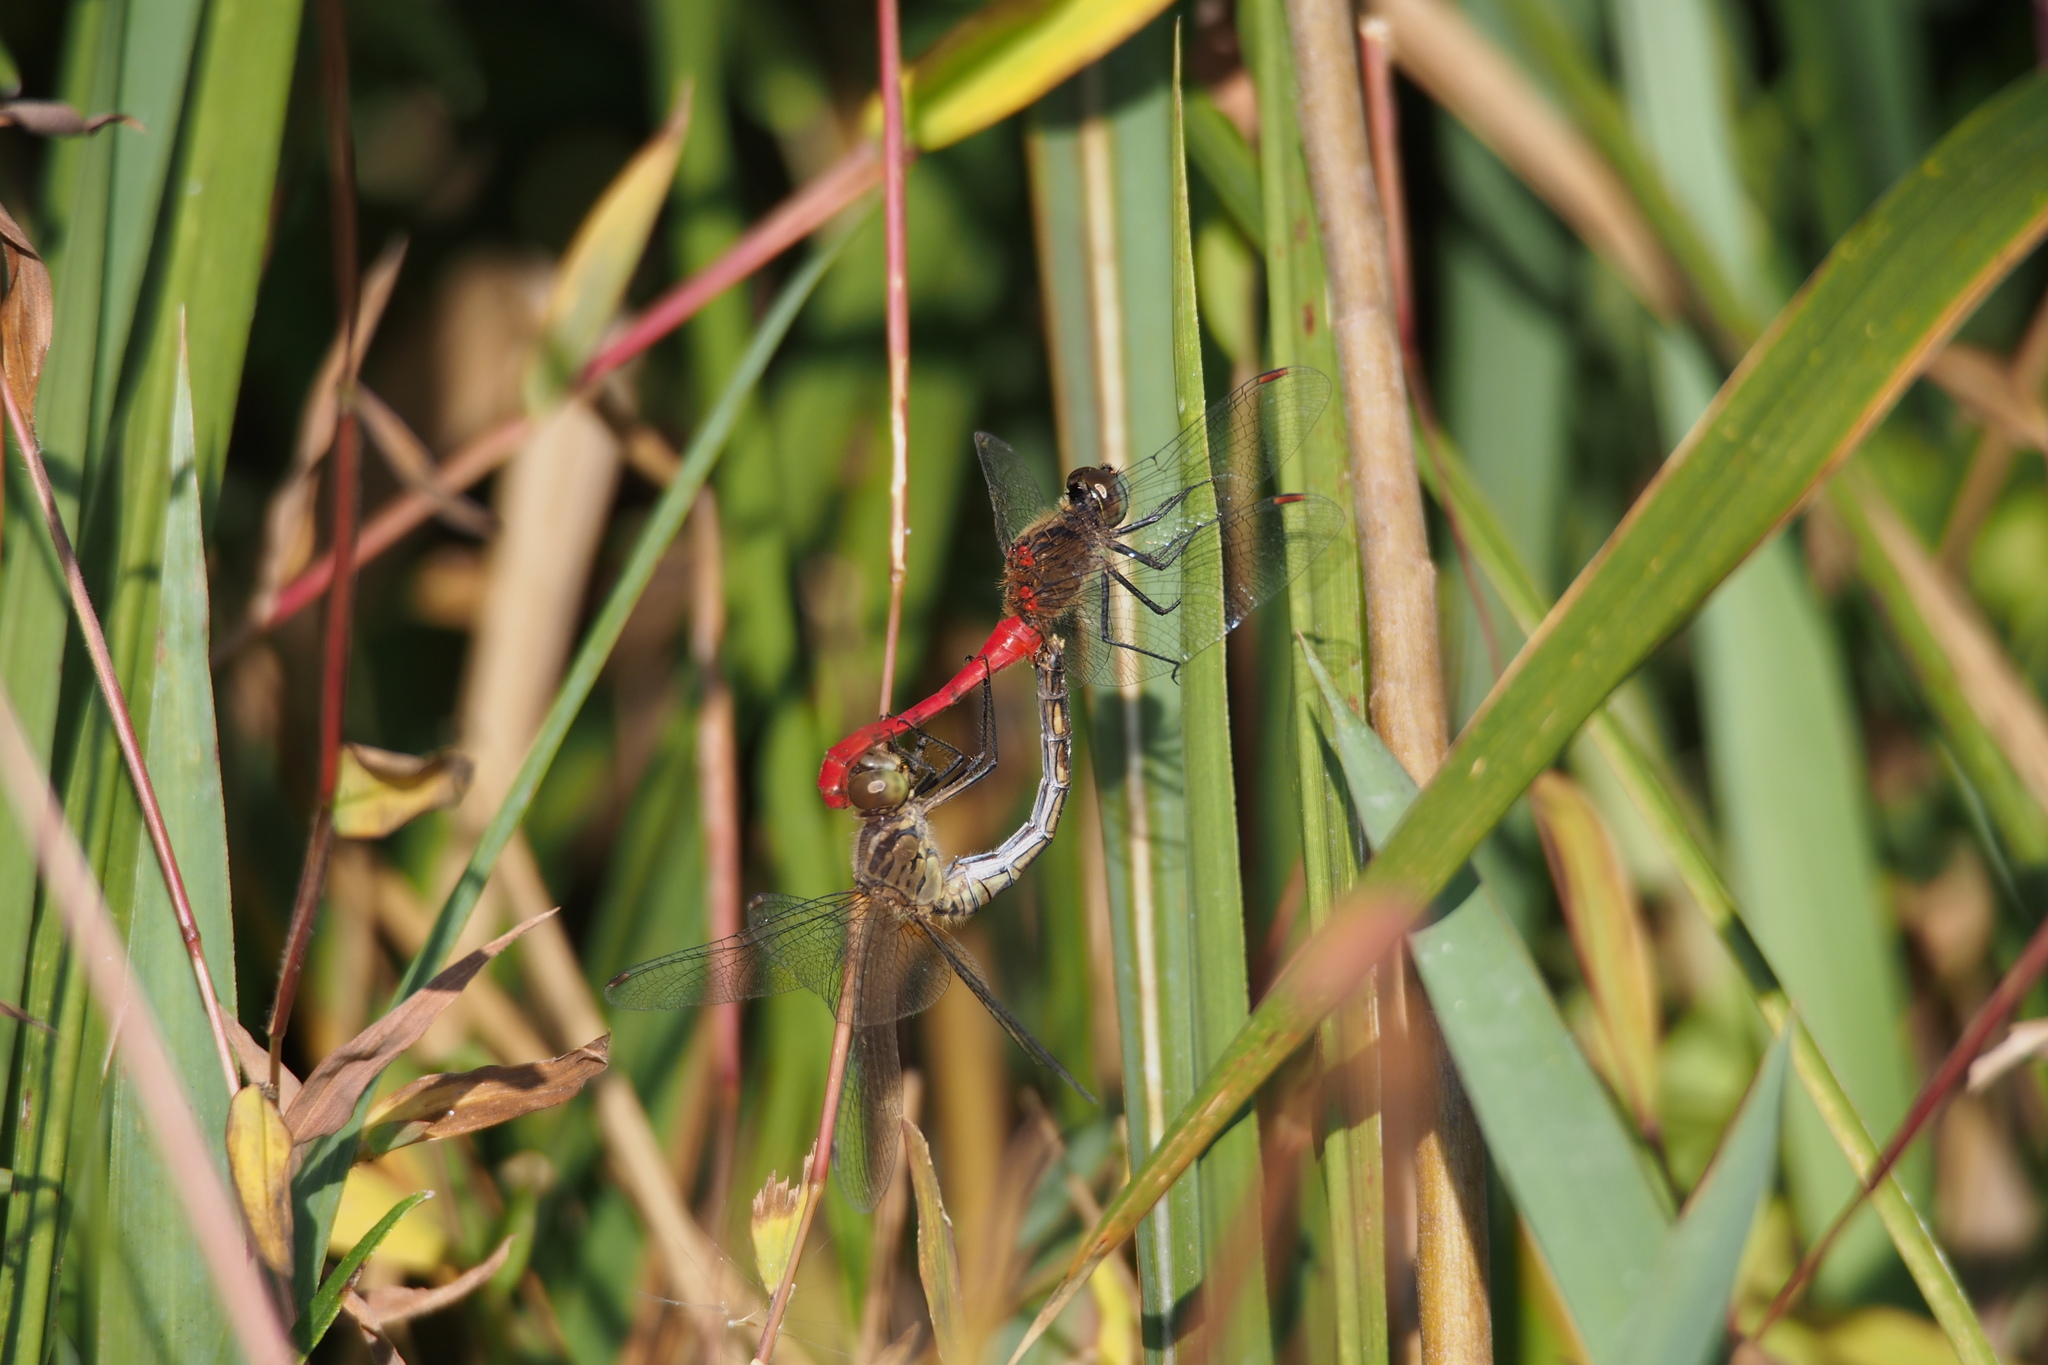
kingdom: Animalia
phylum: Arthropoda
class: Insecta
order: Odonata
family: Libellulidae
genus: Sympetrum
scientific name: Sympetrum kunckeli
